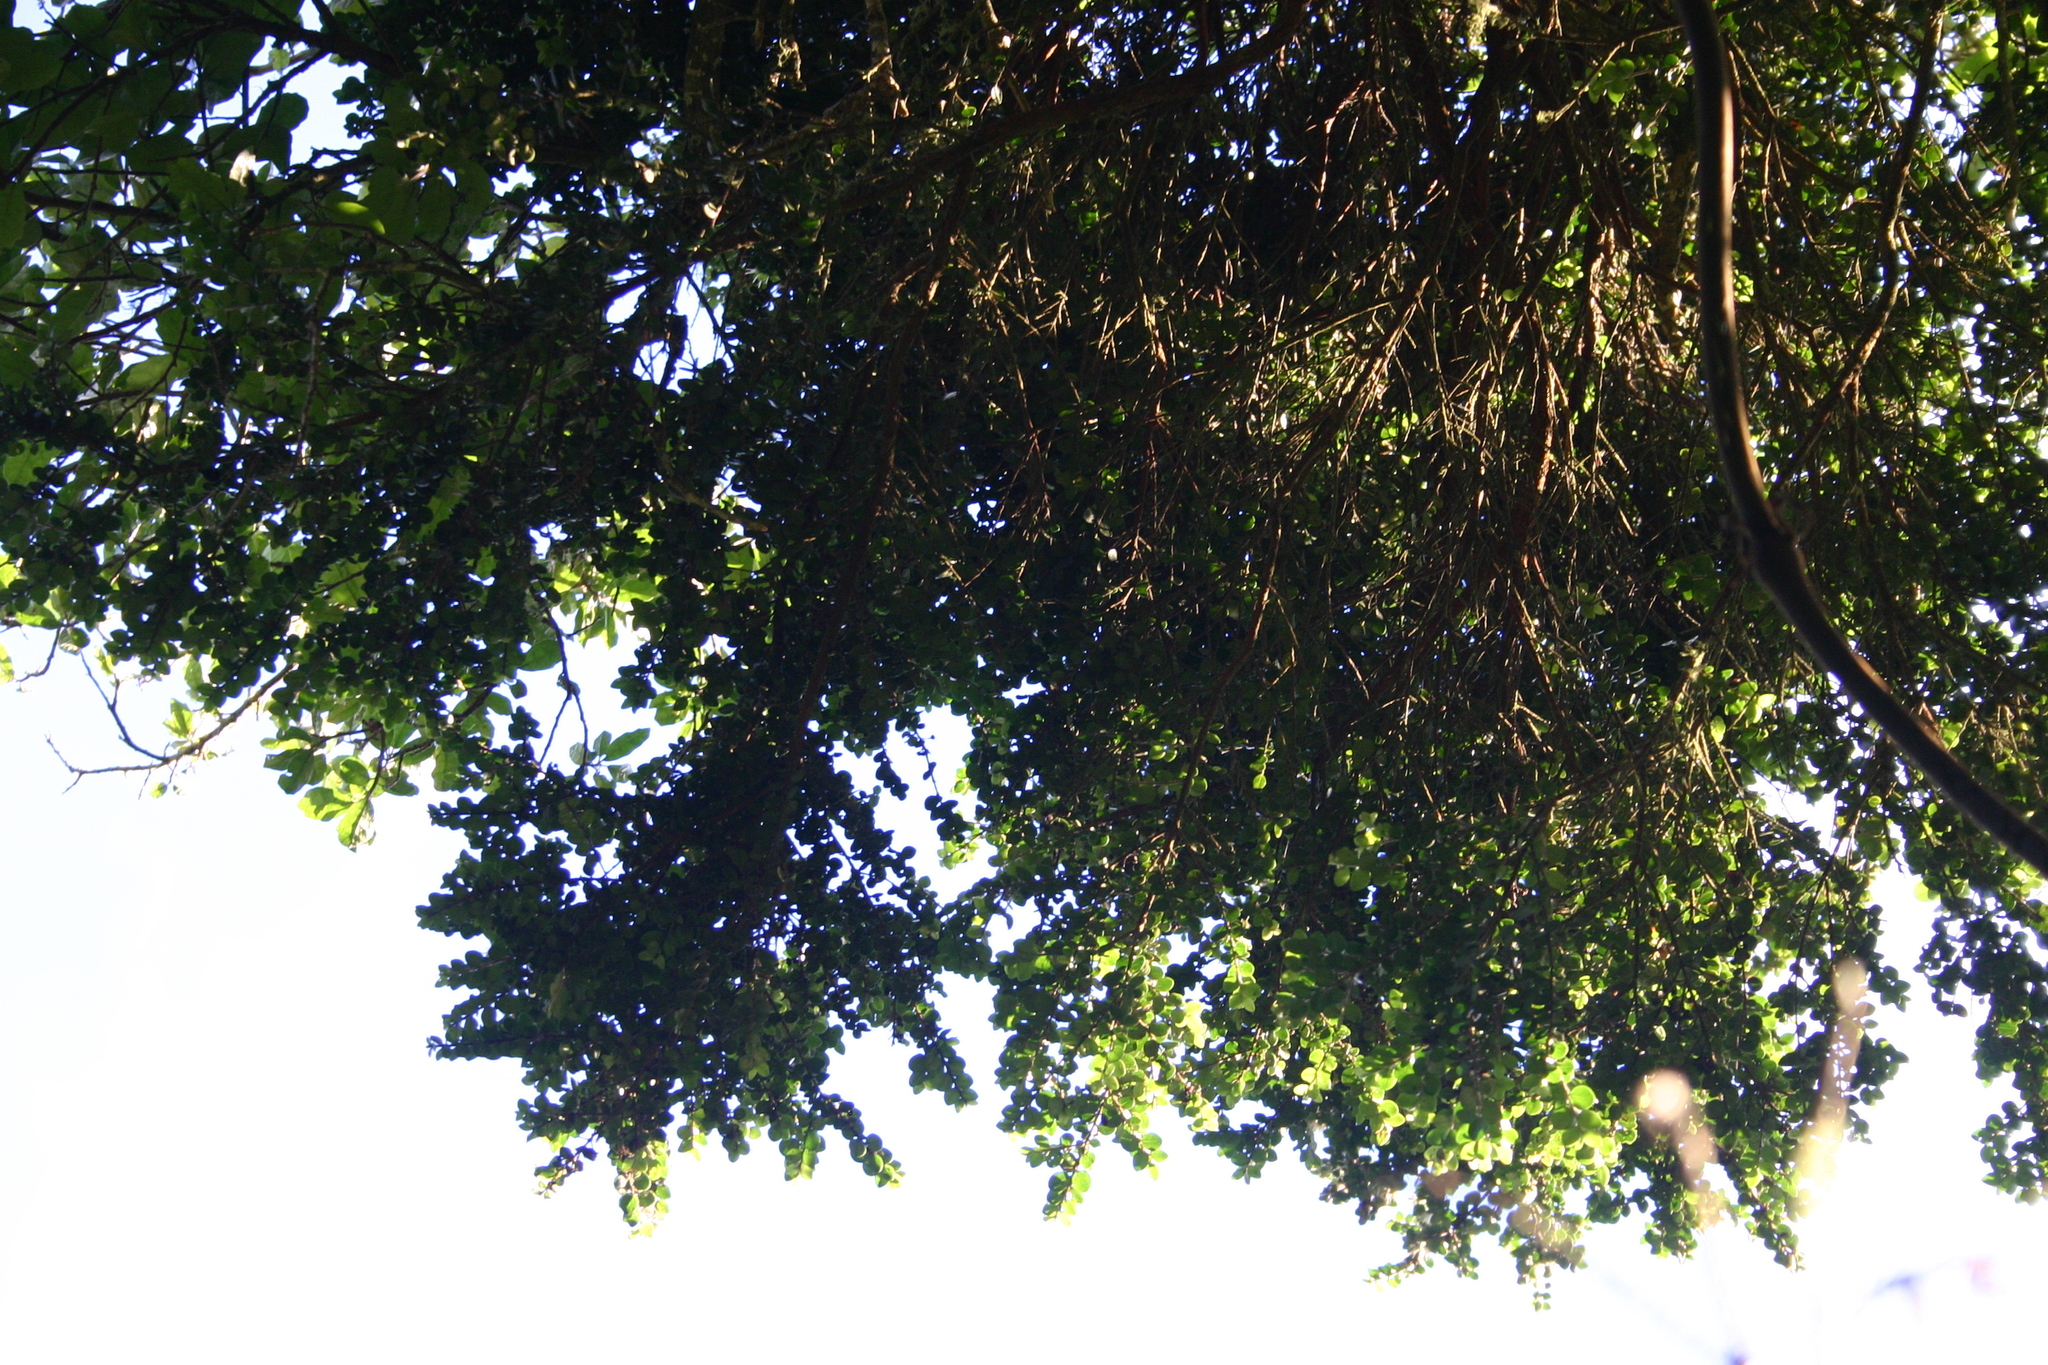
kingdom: Plantae
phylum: Tracheophyta
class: Magnoliopsida
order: Myrtales
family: Myrtaceae
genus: Metrosideros
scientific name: Metrosideros fulgens
